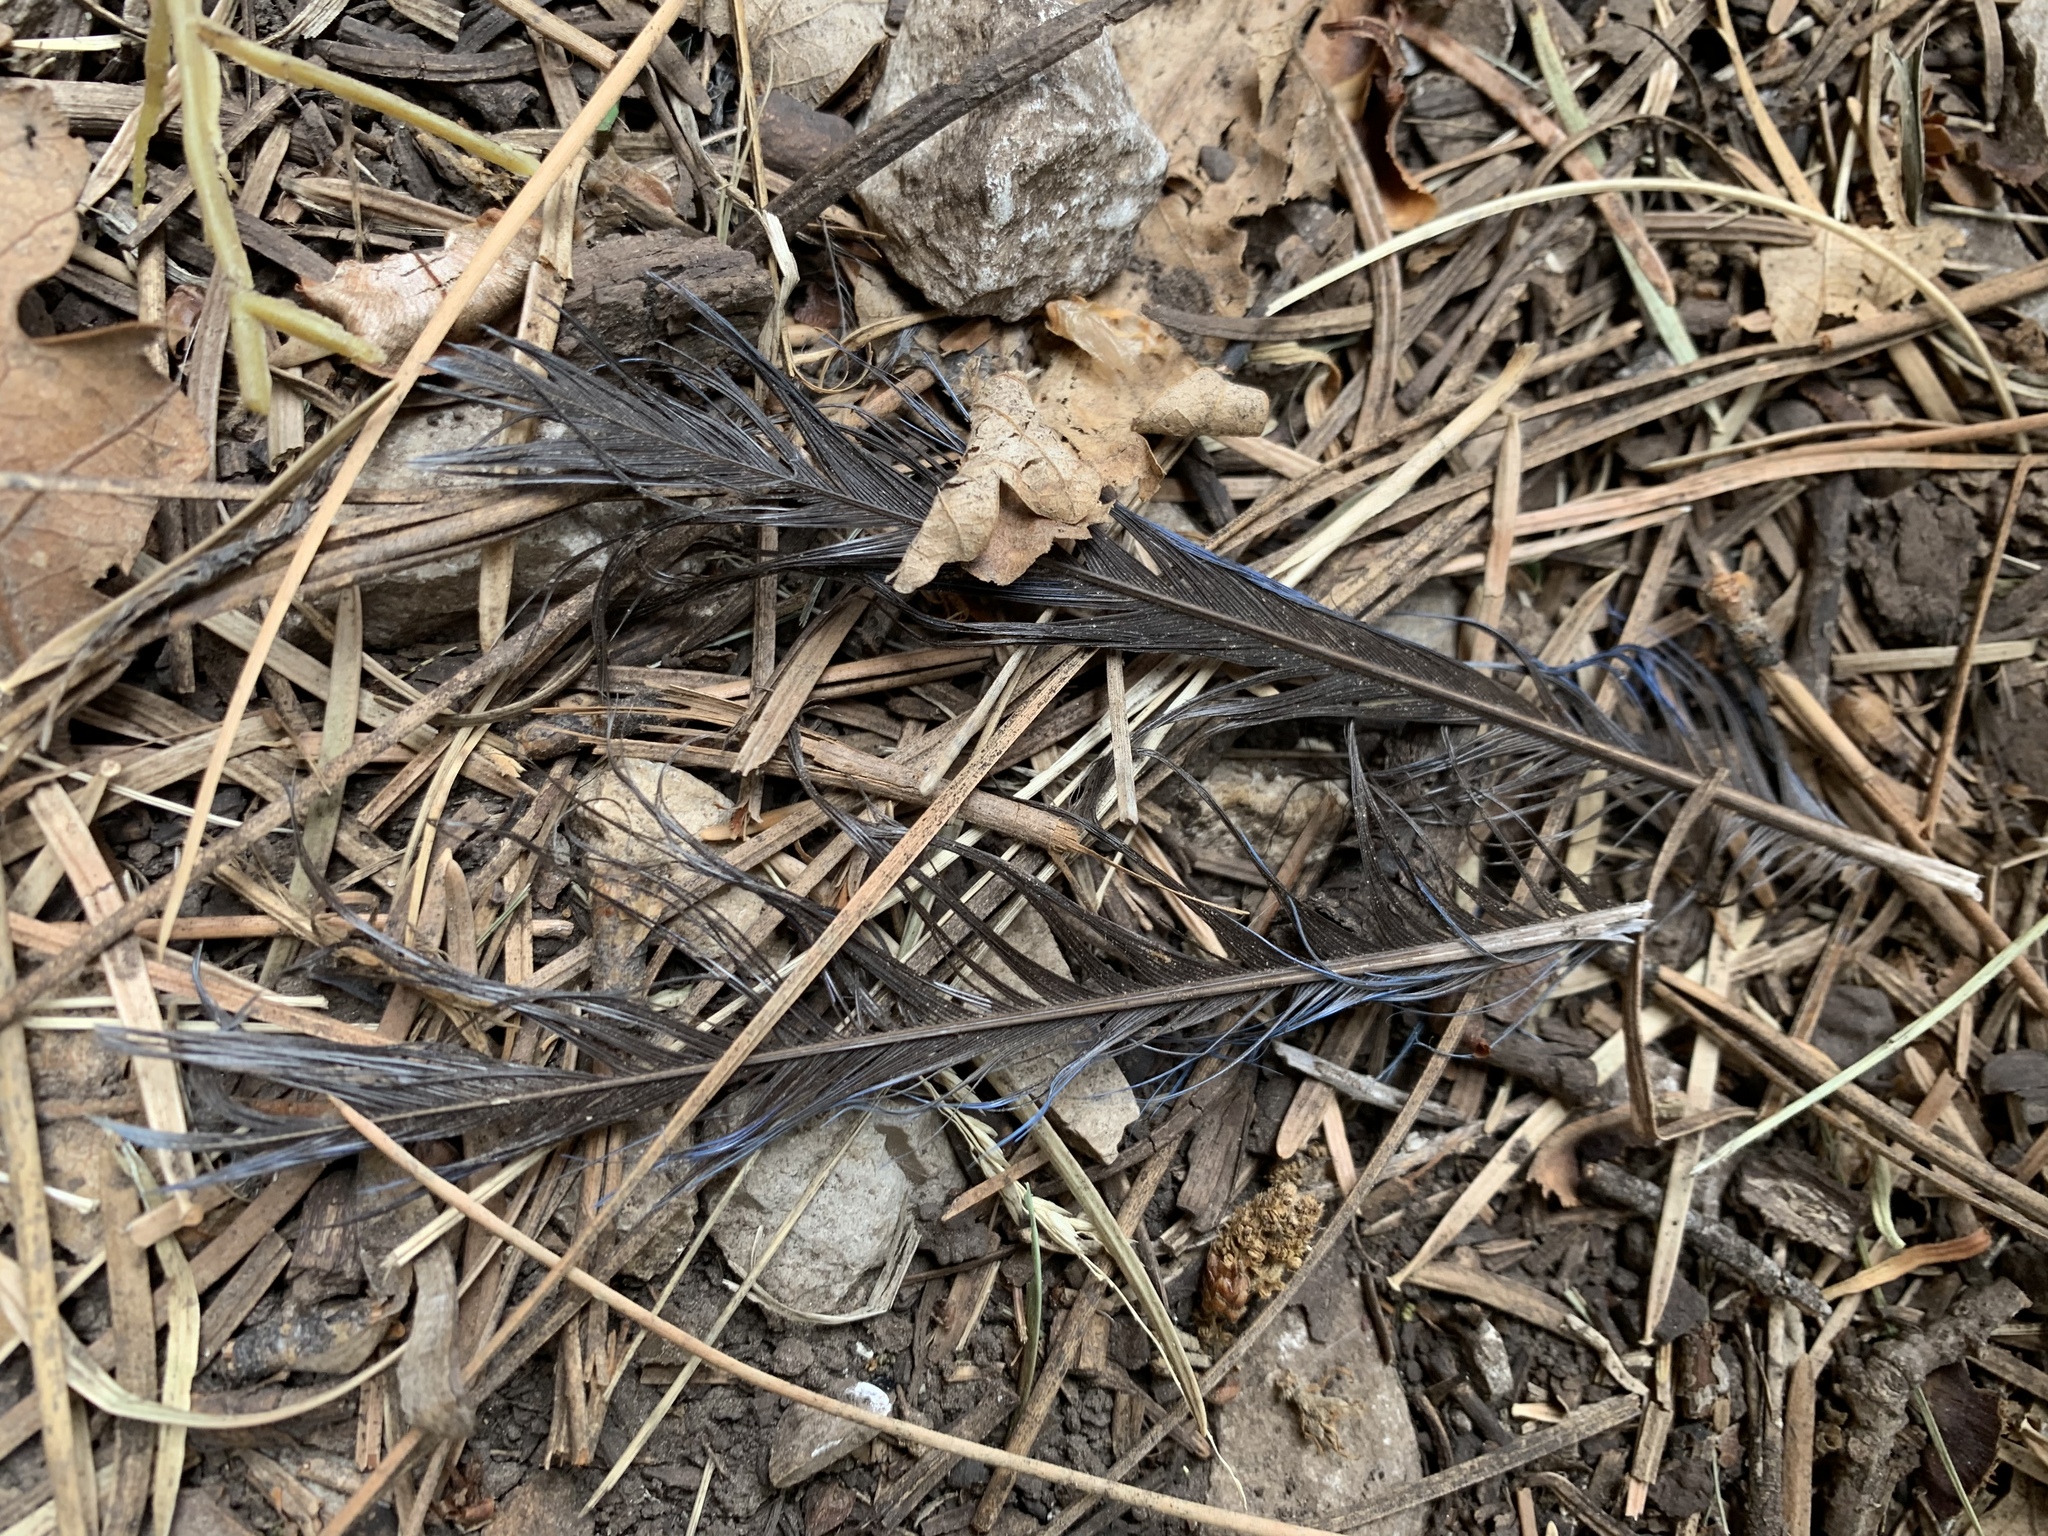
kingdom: Animalia
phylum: Chordata
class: Aves
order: Passeriformes
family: Corvidae
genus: Cyanocitta
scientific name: Cyanocitta stelleri
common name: Steller's jay
